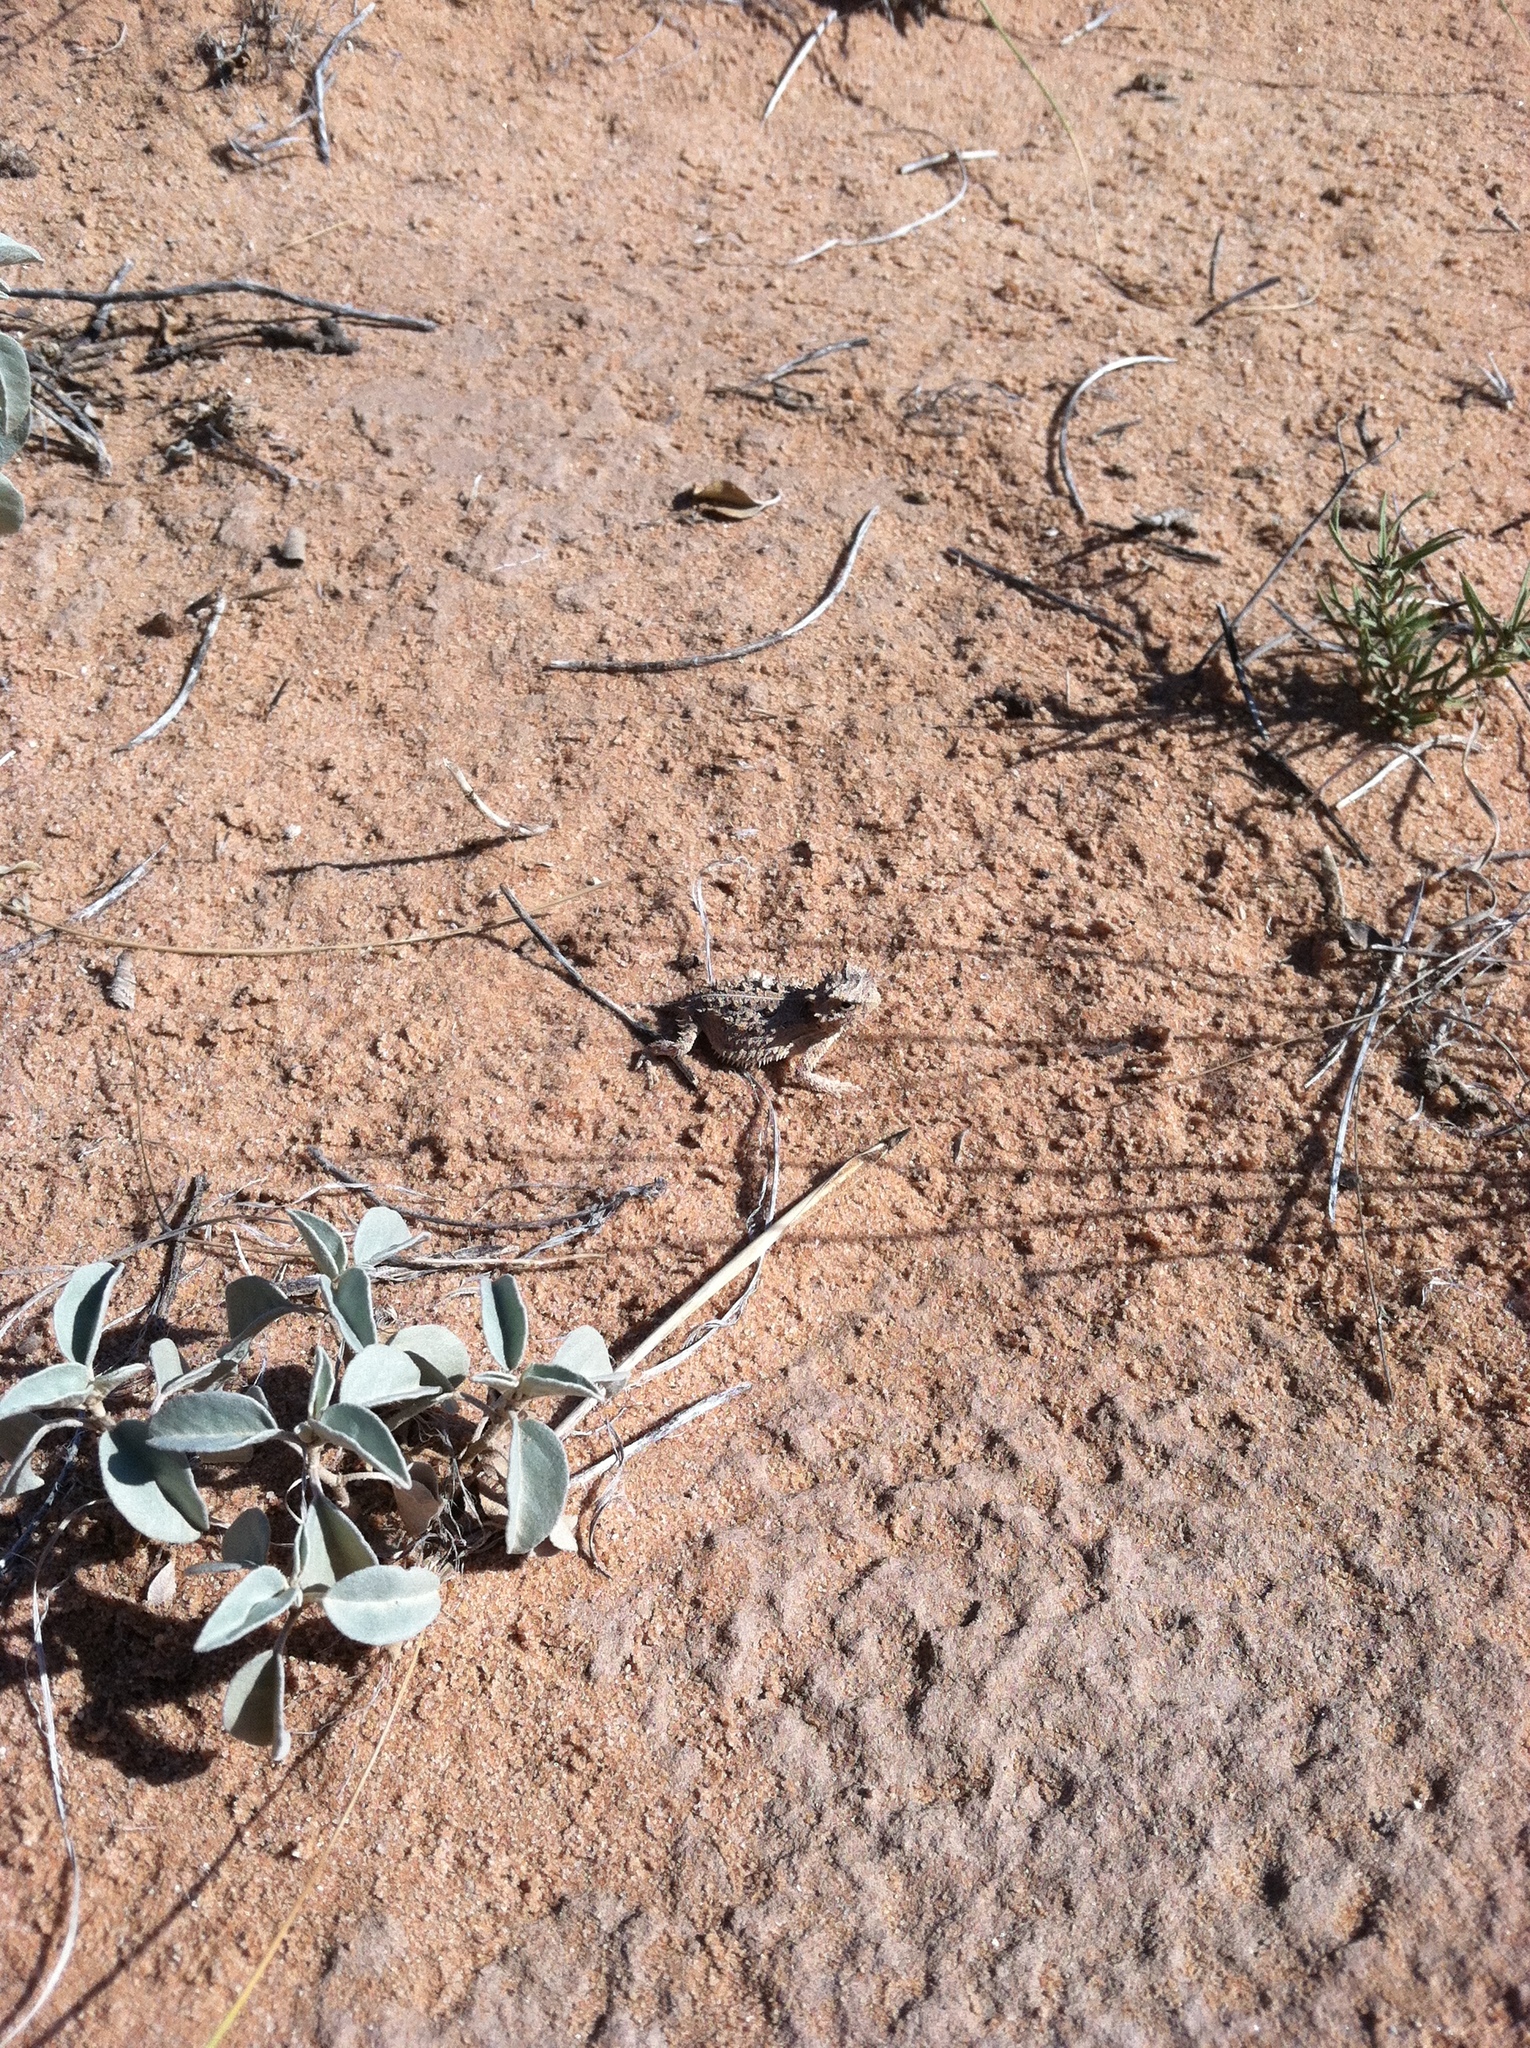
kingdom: Animalia
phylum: Chordata
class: Squamata
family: Phrynosomatidae
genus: Phrynosoma
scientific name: Phrynosoma cornutum
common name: Texas horned lizard
